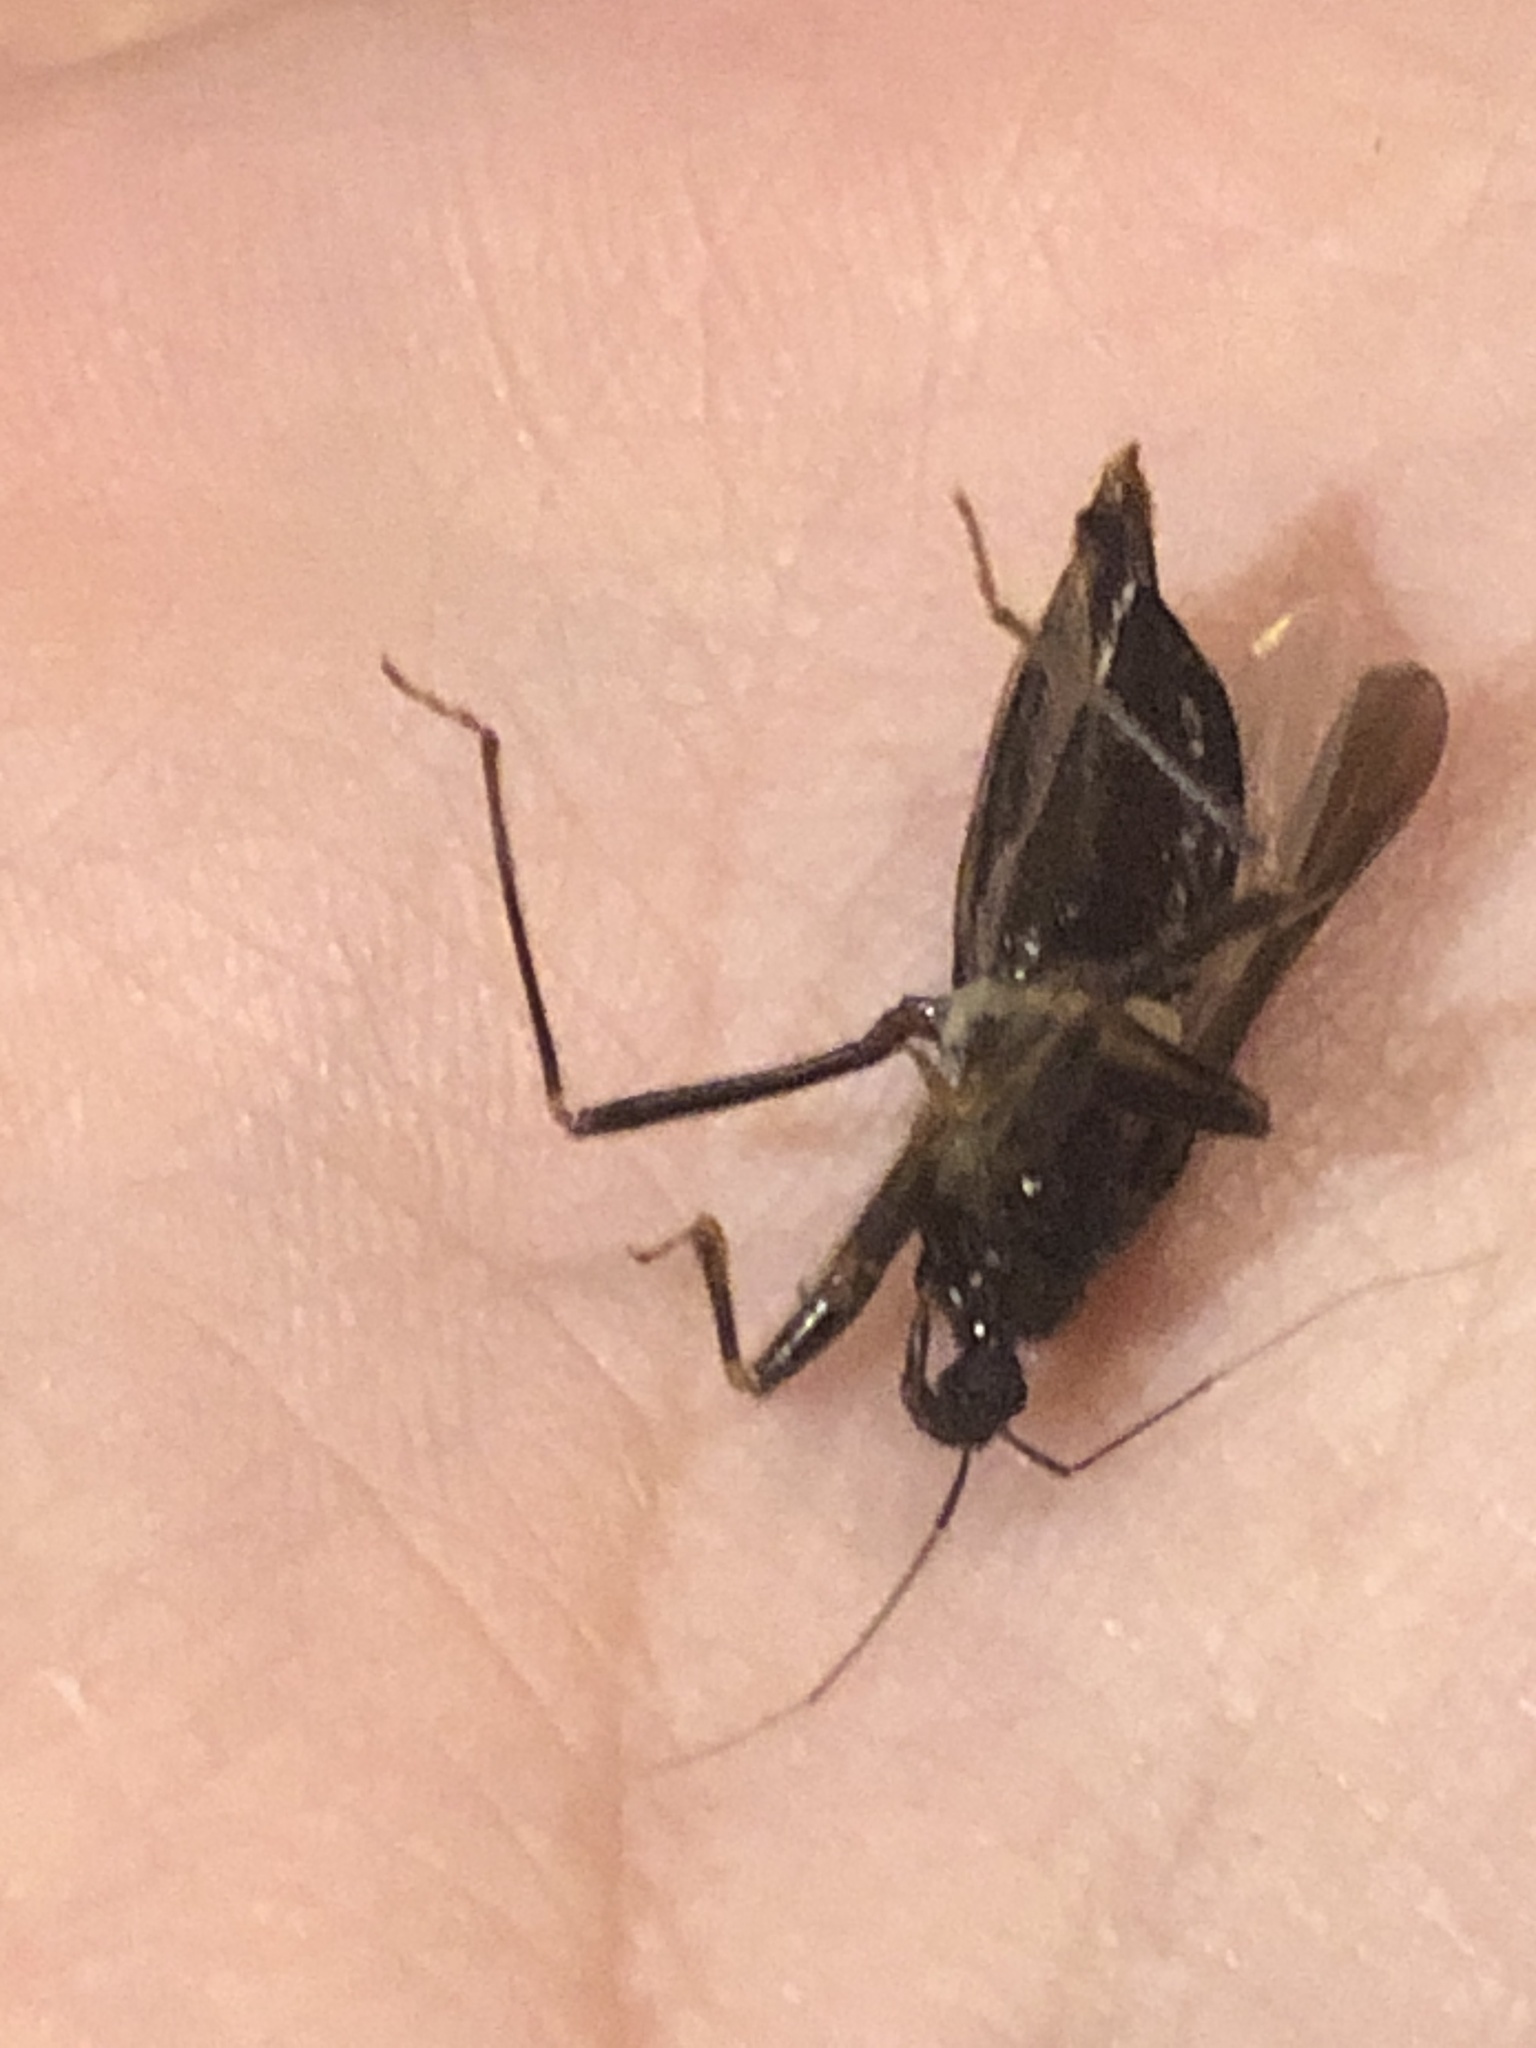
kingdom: Animalia
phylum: Arthropoda
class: Insecta
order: Hemiptera
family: Reduviidae
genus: Reduvius
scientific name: Reduvius personatus
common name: Masked hunter
